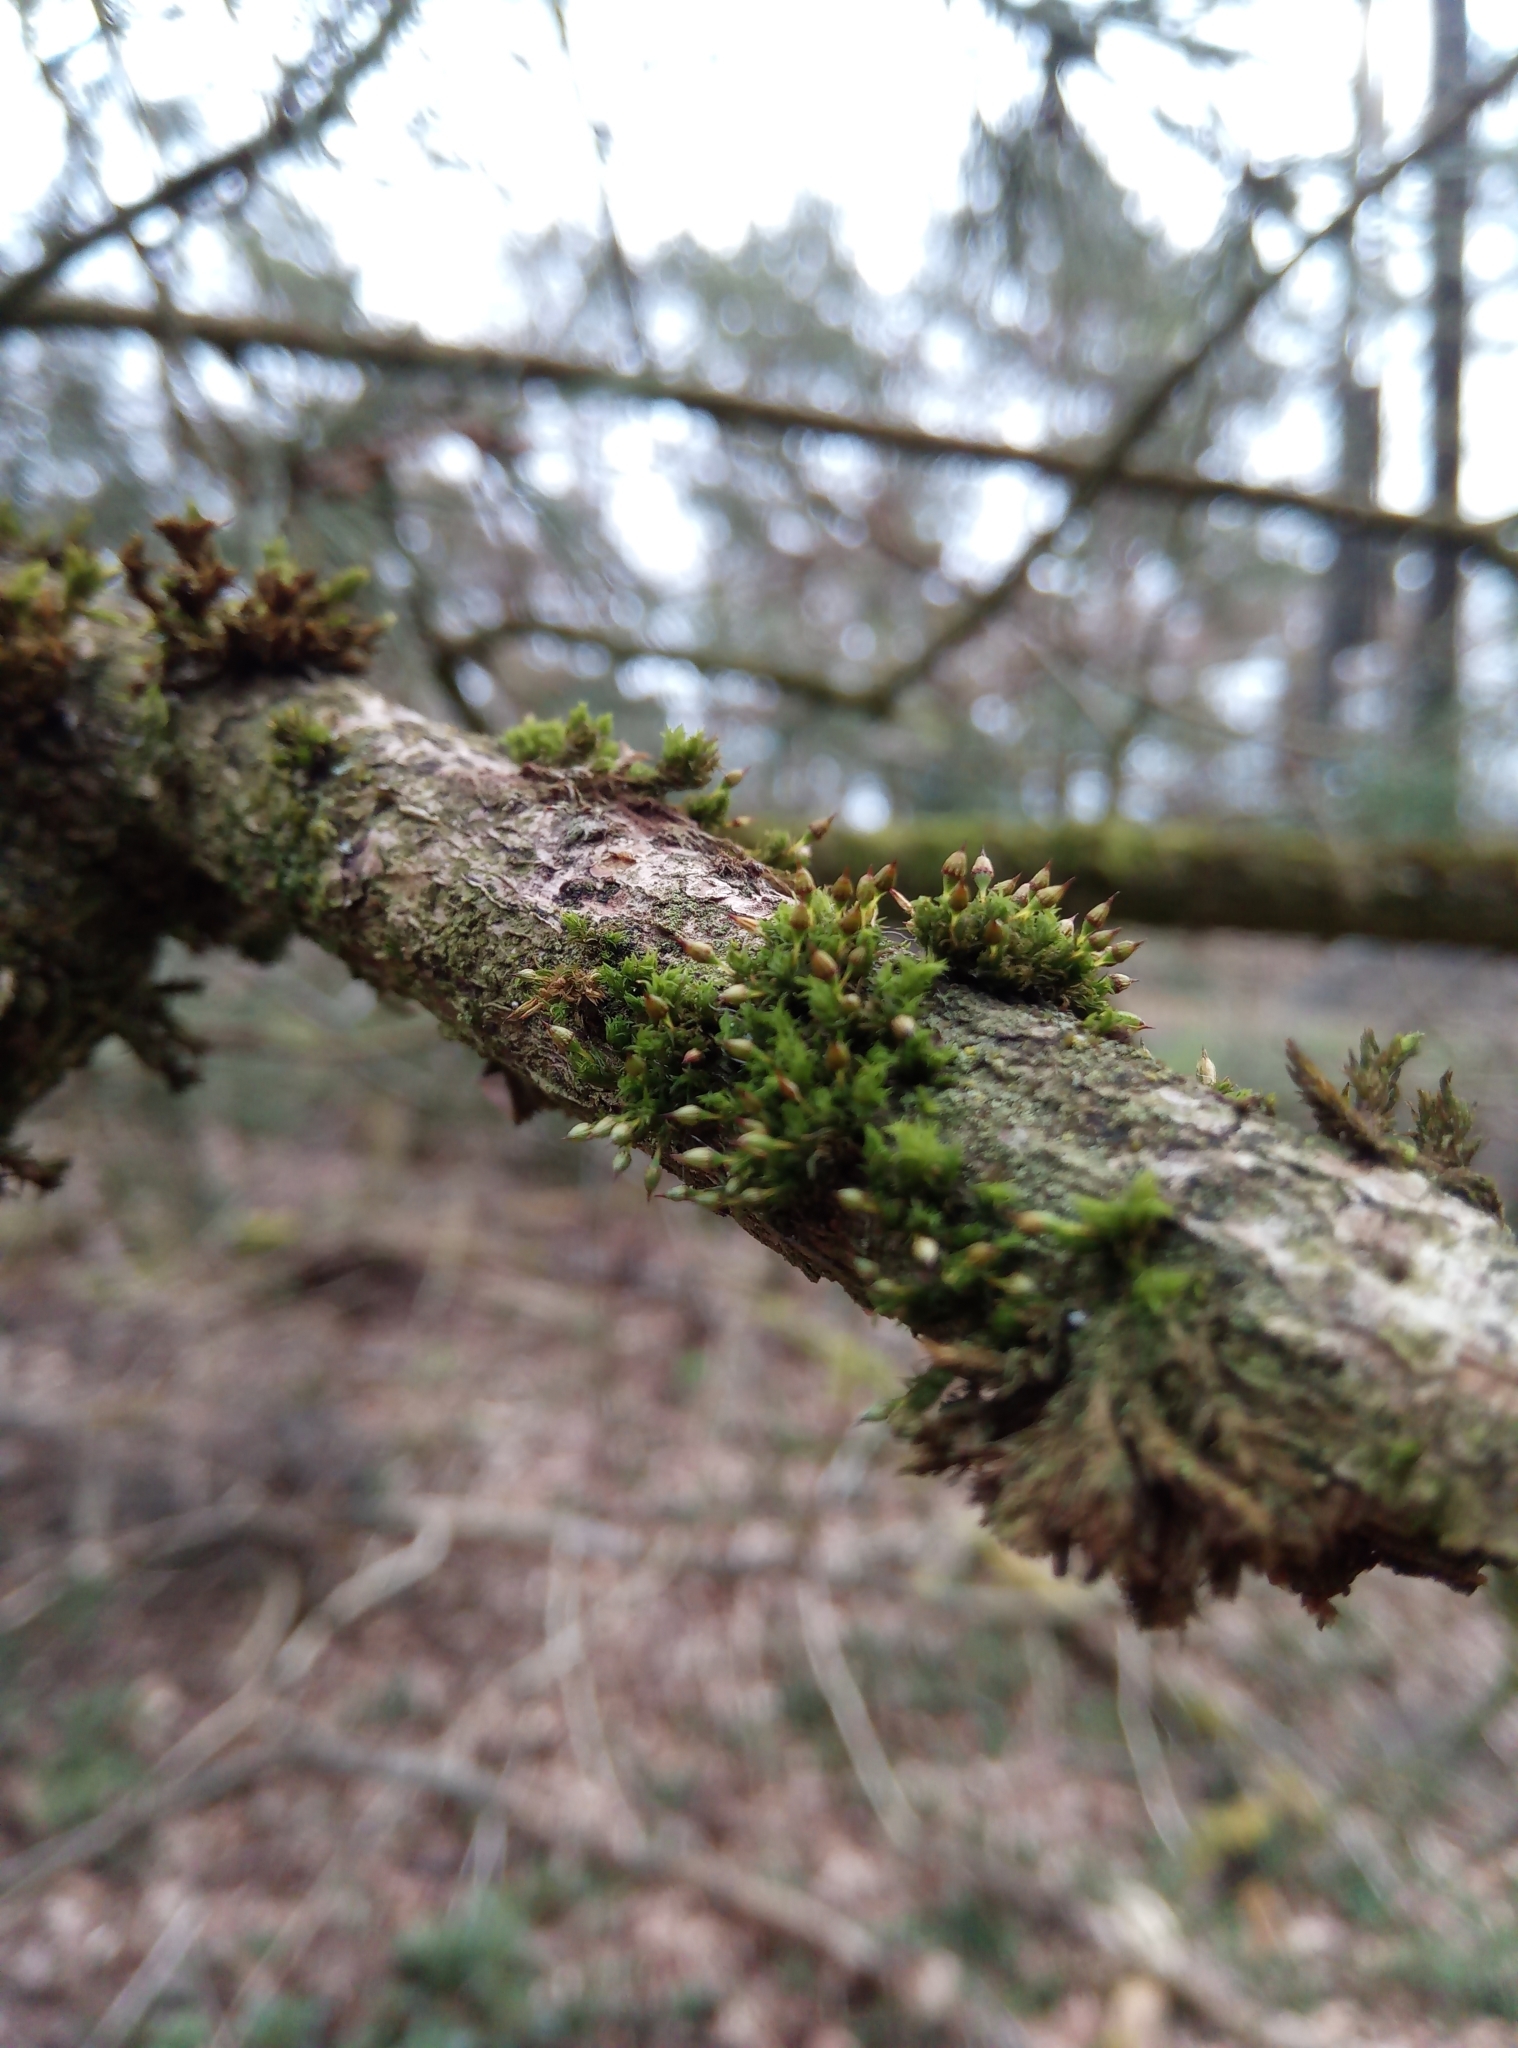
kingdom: Plantae
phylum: Bryophyta
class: Bryopsida
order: Orthotrichales
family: Orthotrichaceae
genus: Orthotrichum
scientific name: Orthotrichum pulchellum
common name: Elegant bristle-moss
